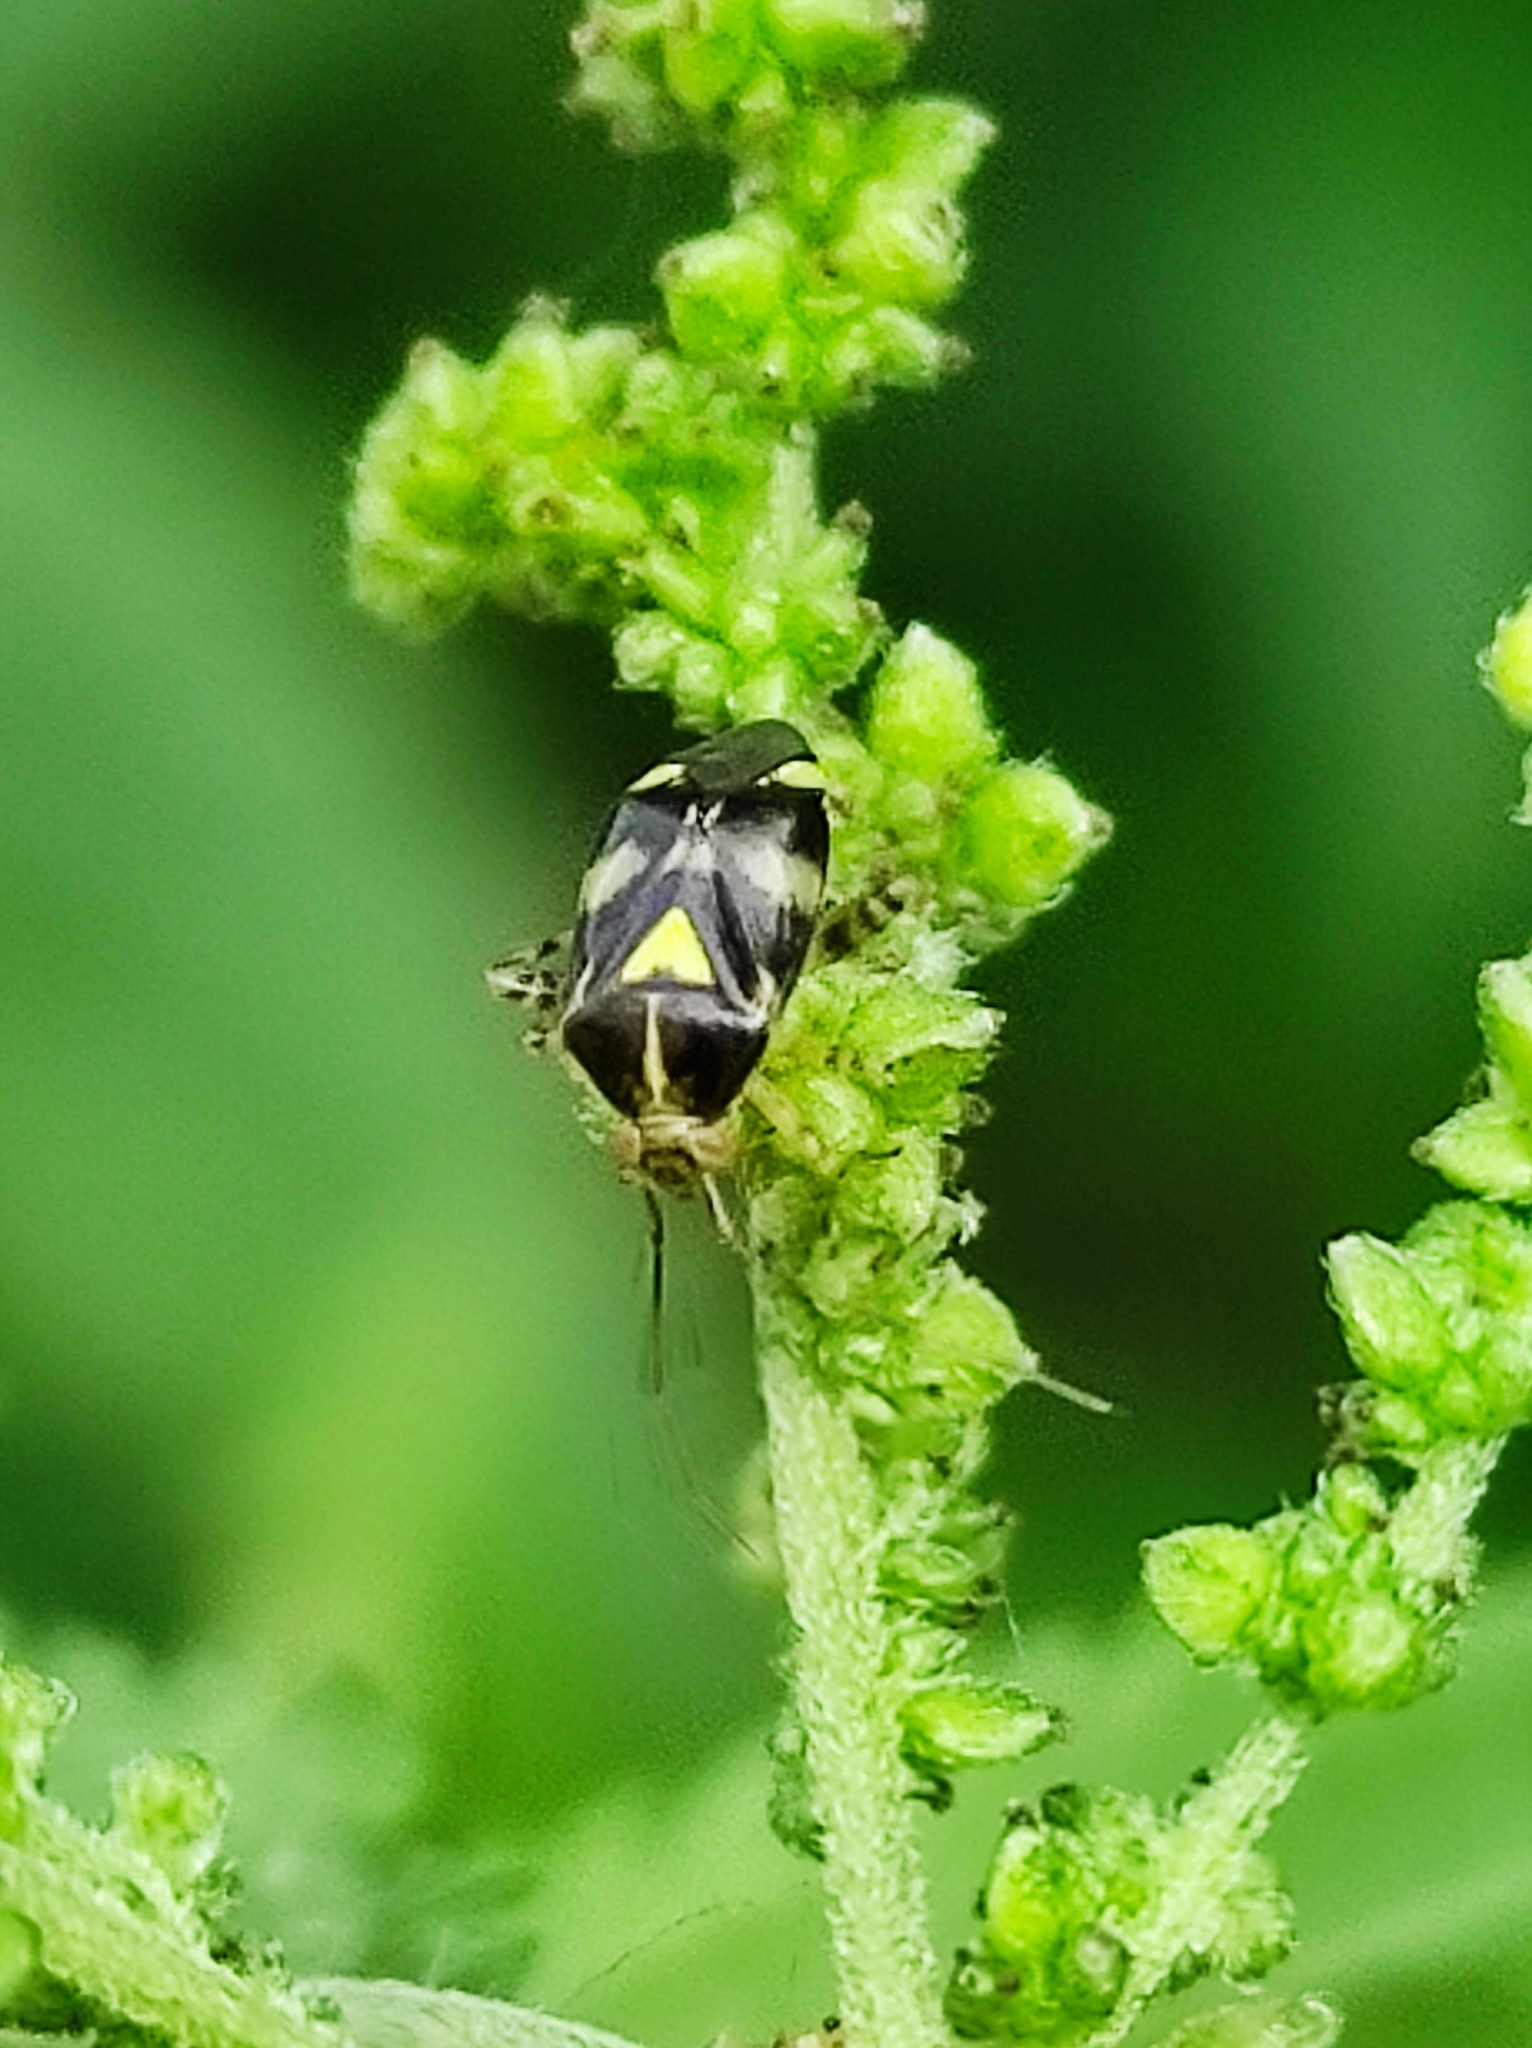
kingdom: Animalia
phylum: Arthropoda
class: Insecta
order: Hemiptera
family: Miridae
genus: Liocoris
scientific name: Liocoris tripustulatus
